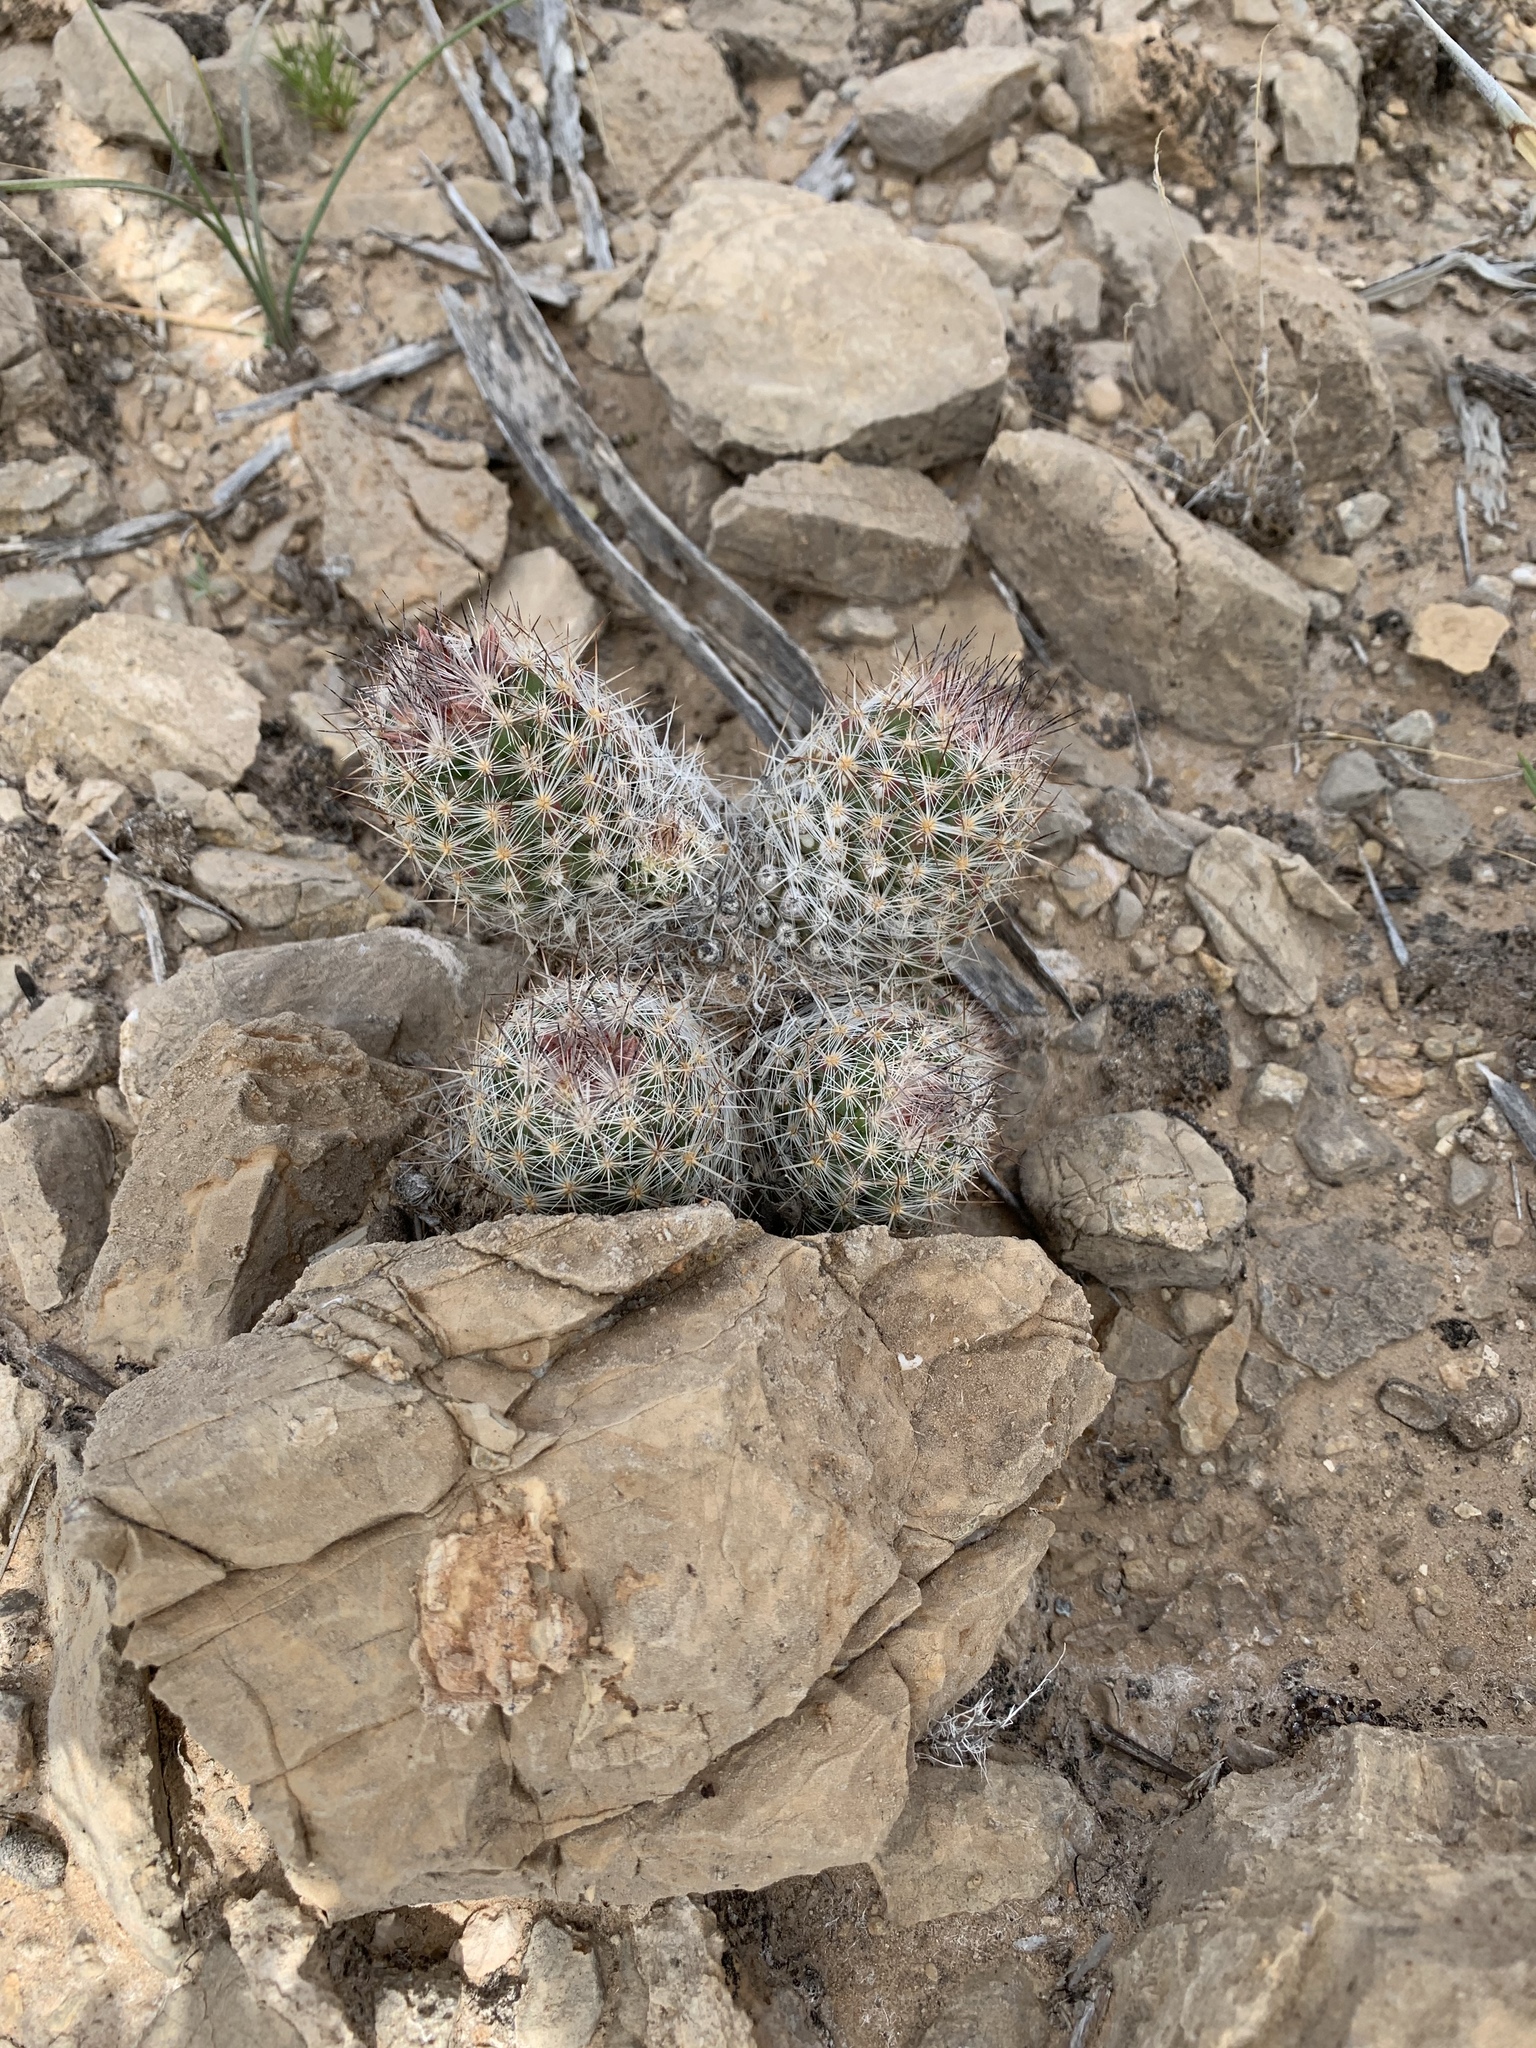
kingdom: Plantae
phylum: Tracheophyta
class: Magnoliopsida
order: Caryophyllales
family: Cactaceae
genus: Pelecyphora
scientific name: Pelecyphora tuberculosa
